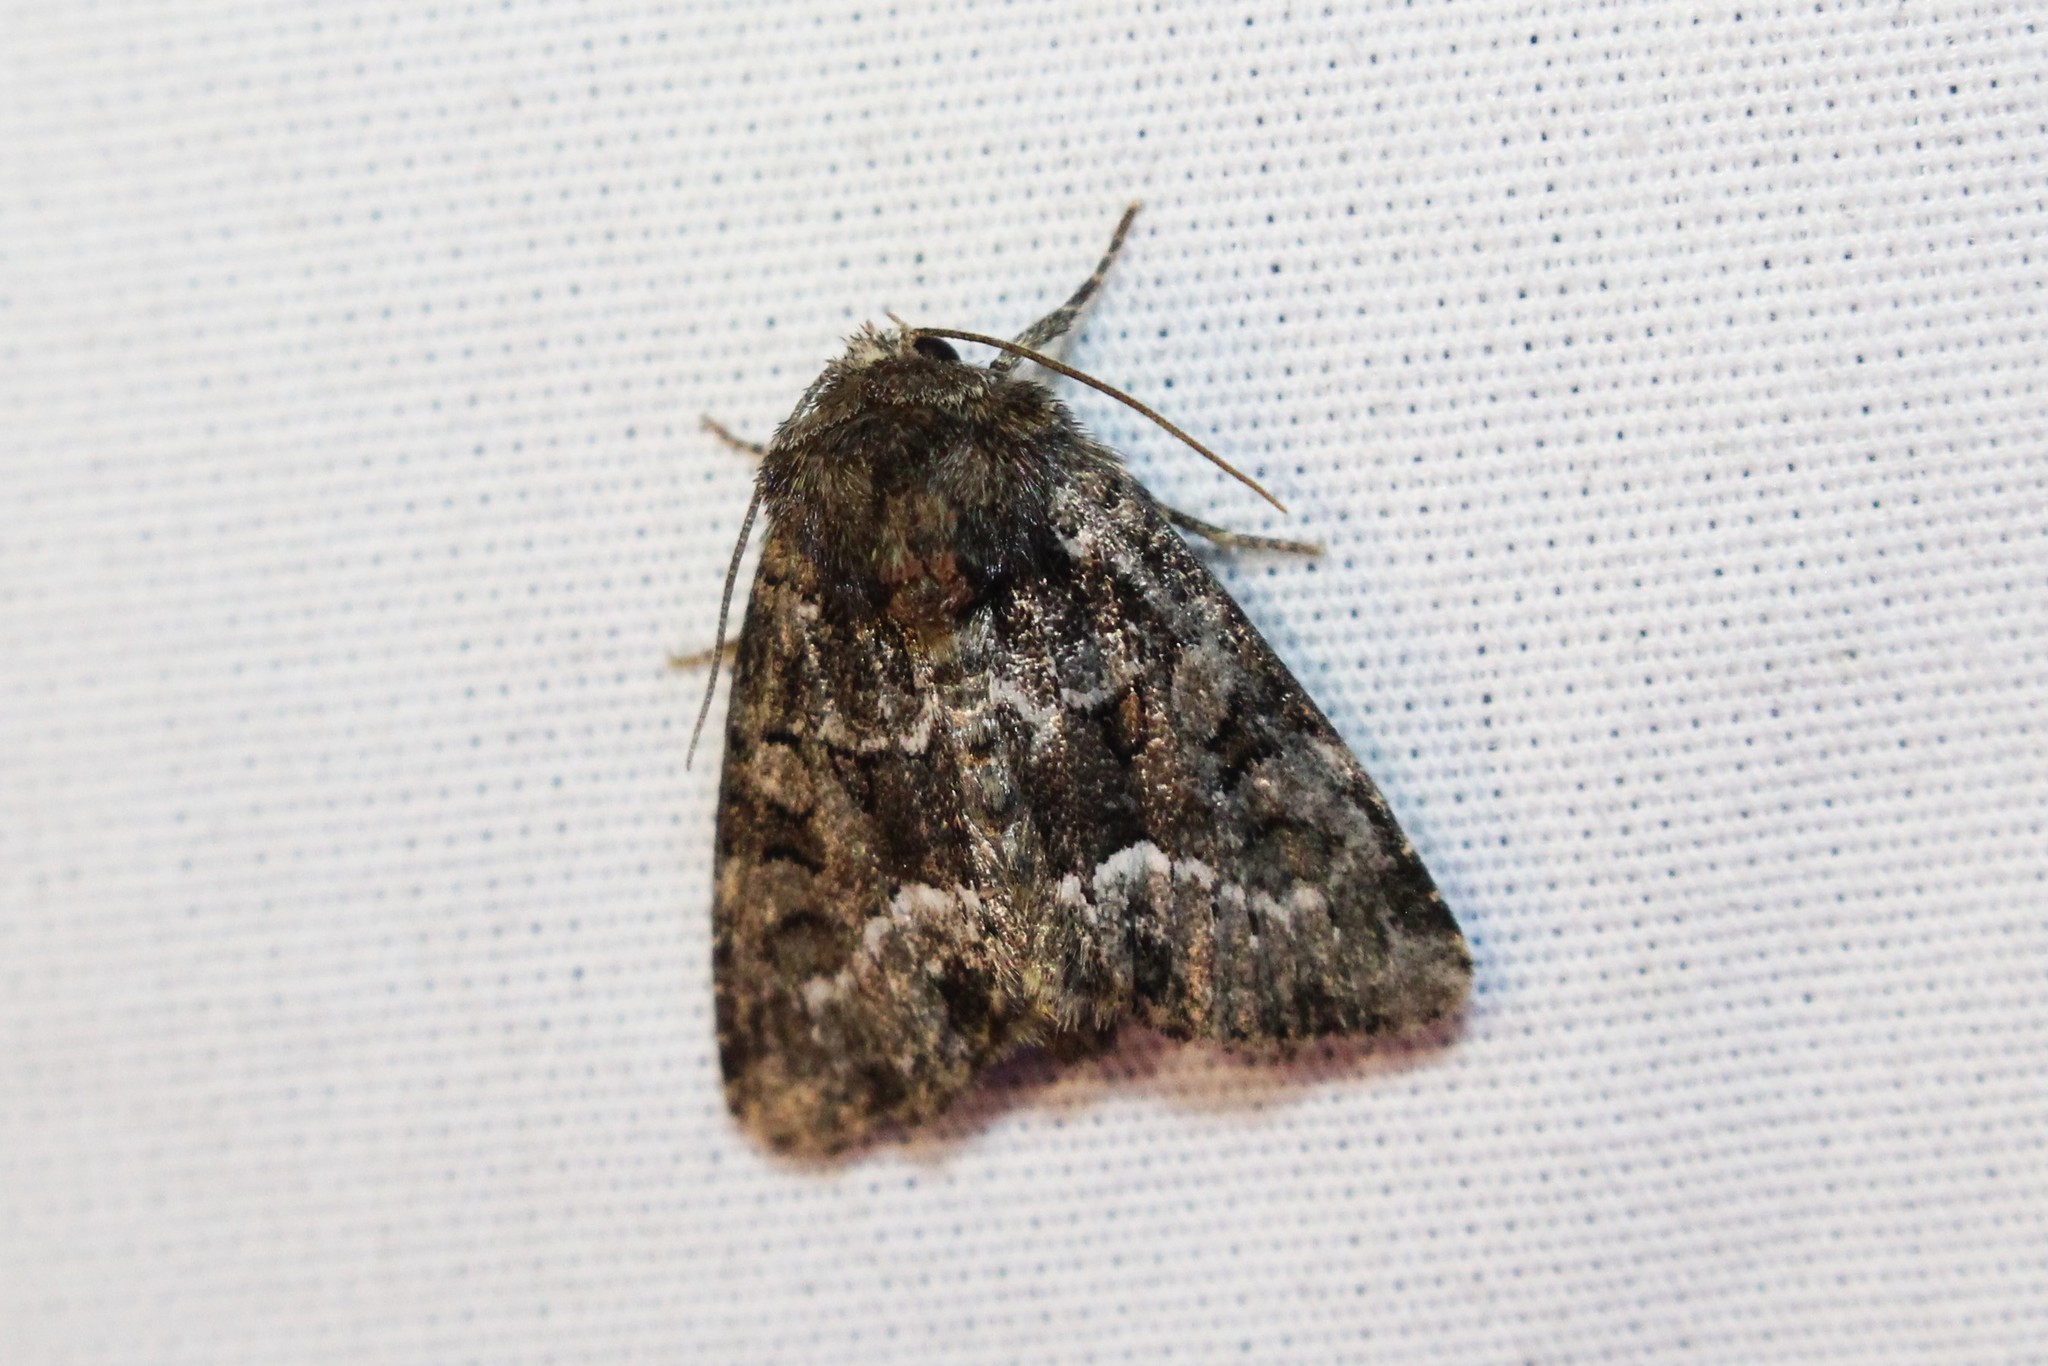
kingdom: Animalia
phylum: Arthropoda
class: Insecta
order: Lepidoptera
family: Noctuidae
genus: Oligia
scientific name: Oligia strigilis
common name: Marbled minor
